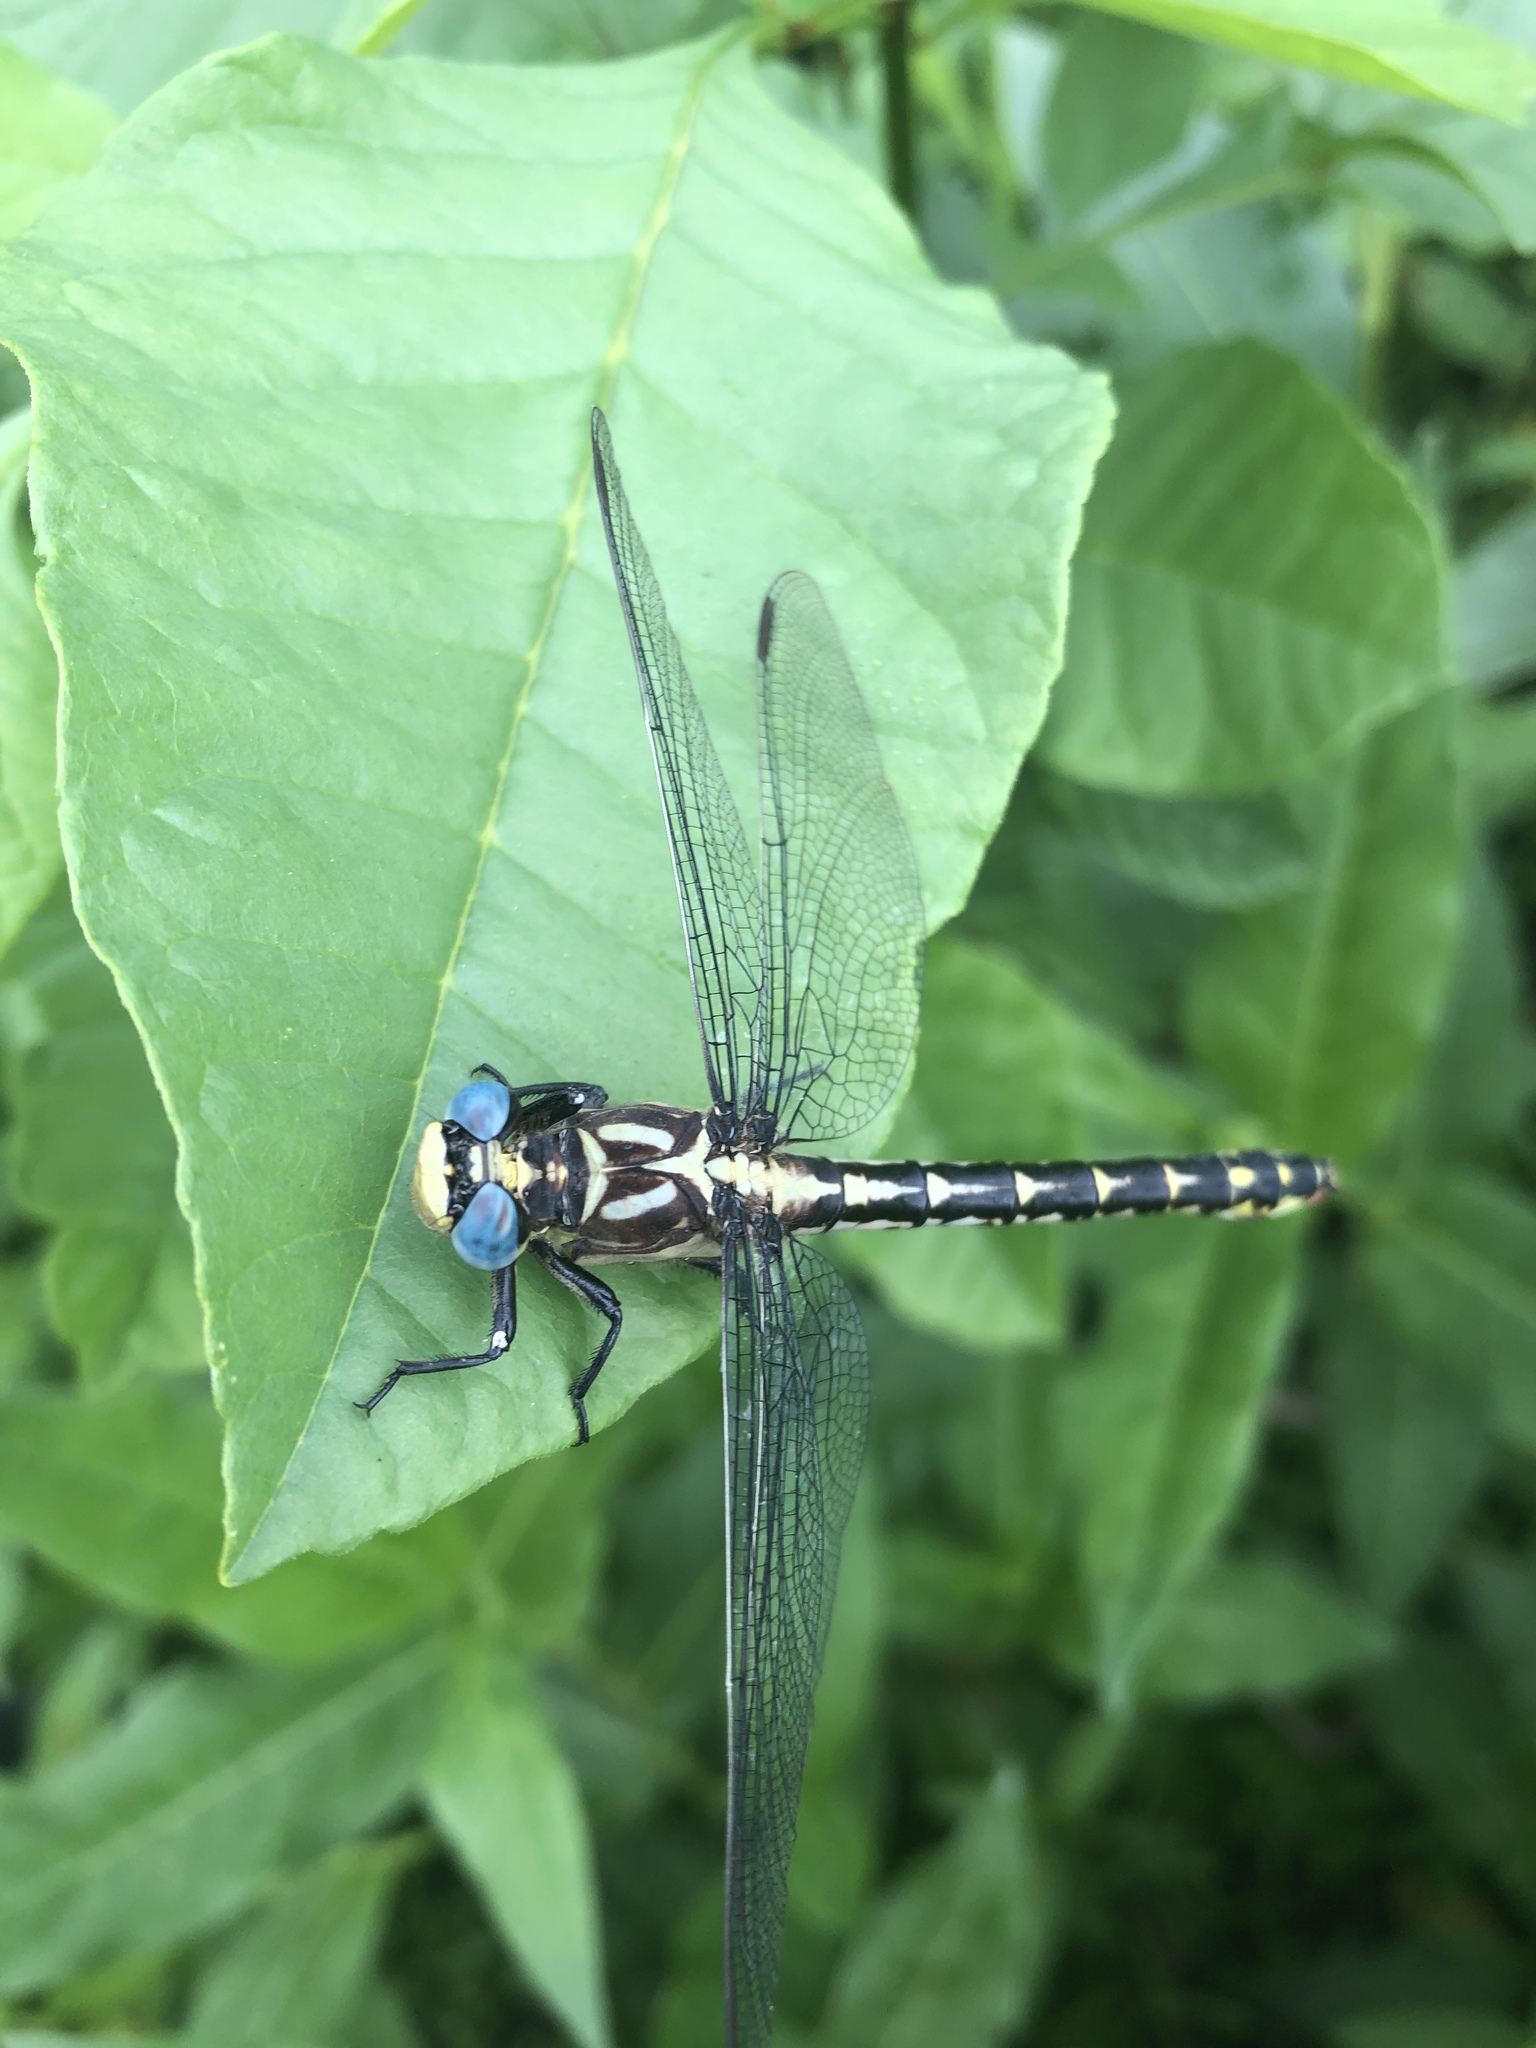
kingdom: Animalia
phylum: Arthropoda
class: Insecta
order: Odonata
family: Gomphidae
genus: Stylurus
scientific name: Stylurus olivaceus
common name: Olive clubtail
